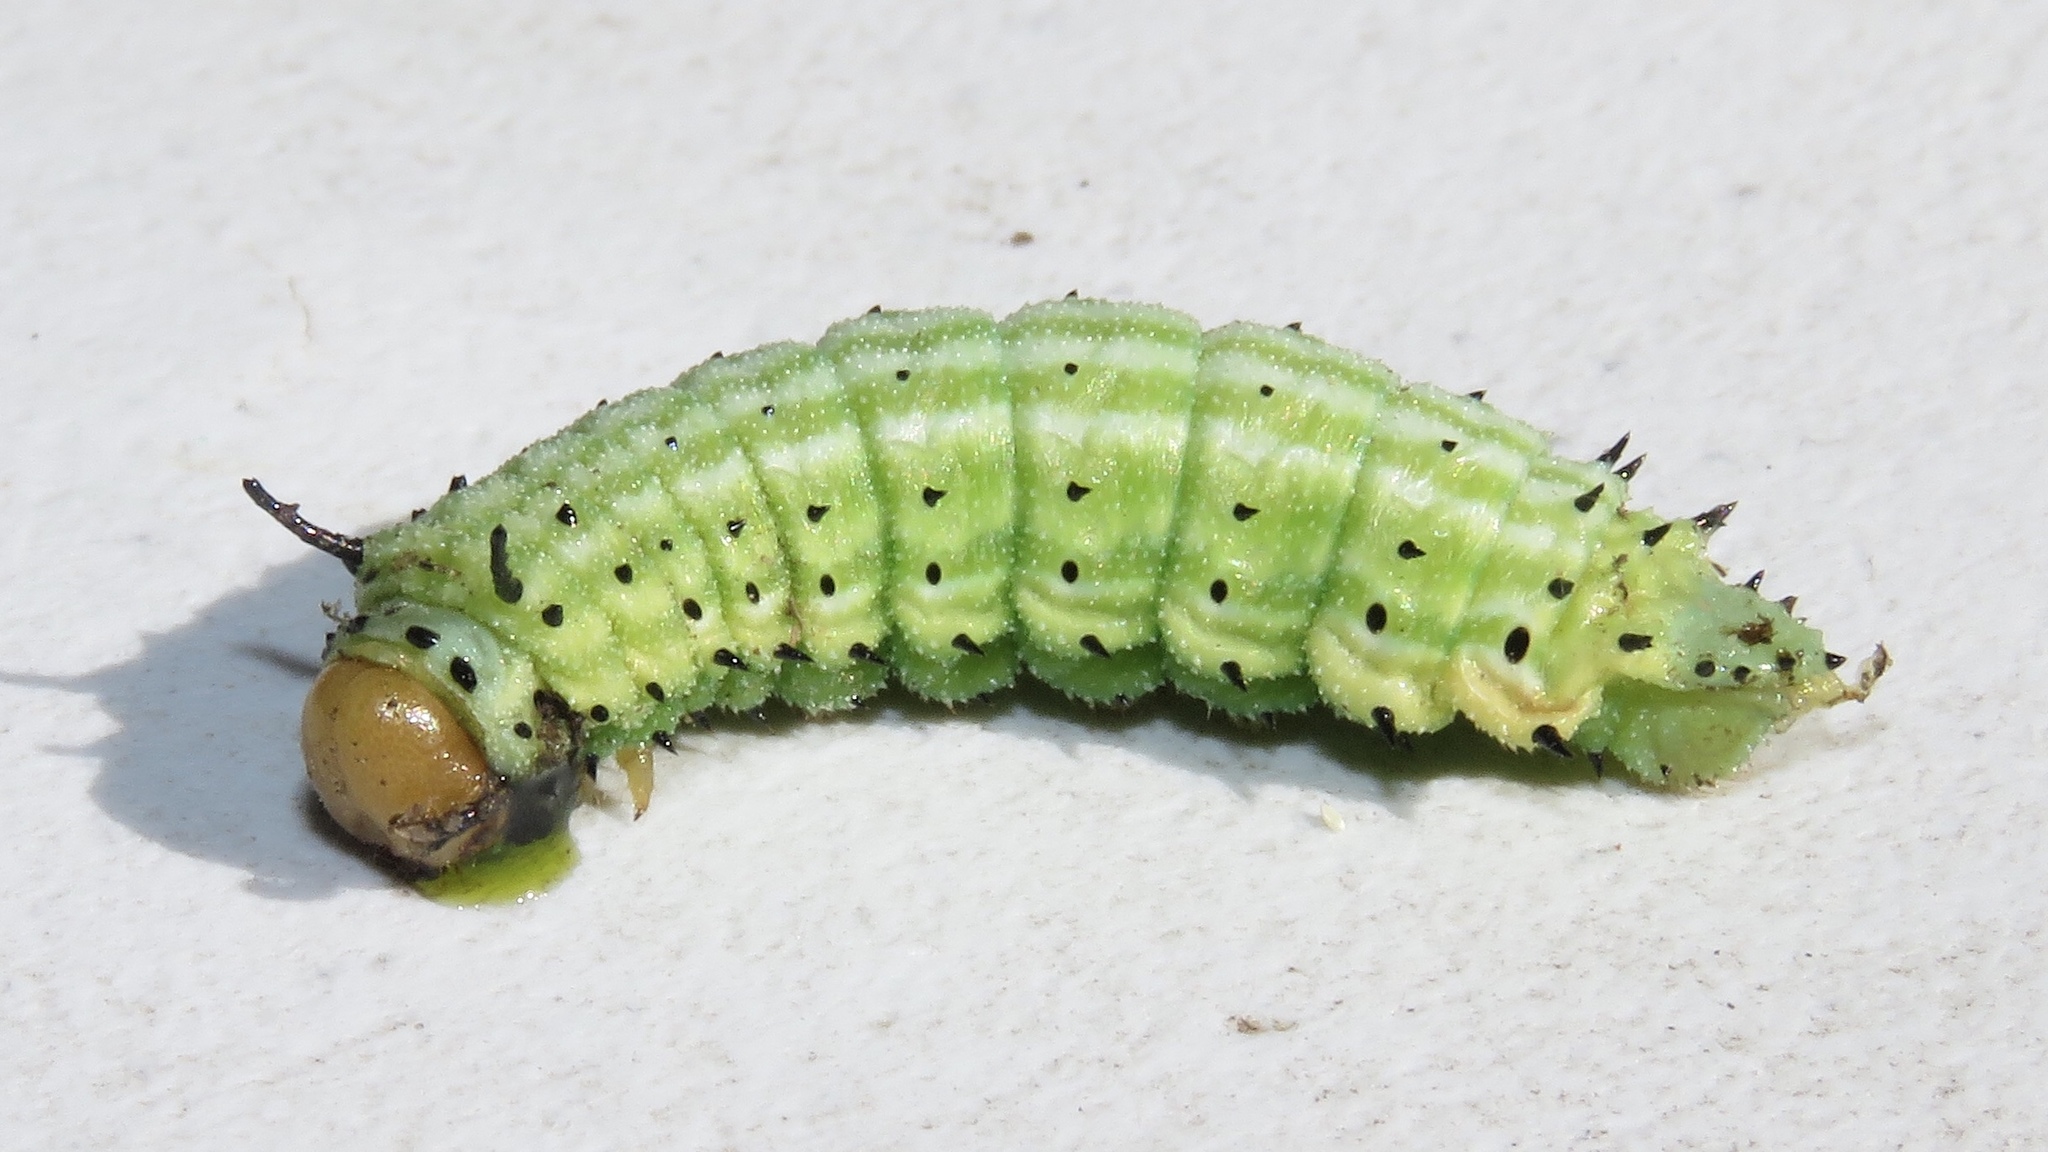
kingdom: Animalia
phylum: Arthropoda
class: Insecta
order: Lepidoptera
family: Saturniidae
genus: Dryocampa
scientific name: Dryocampa rubicunda
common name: Rosy maple moth
